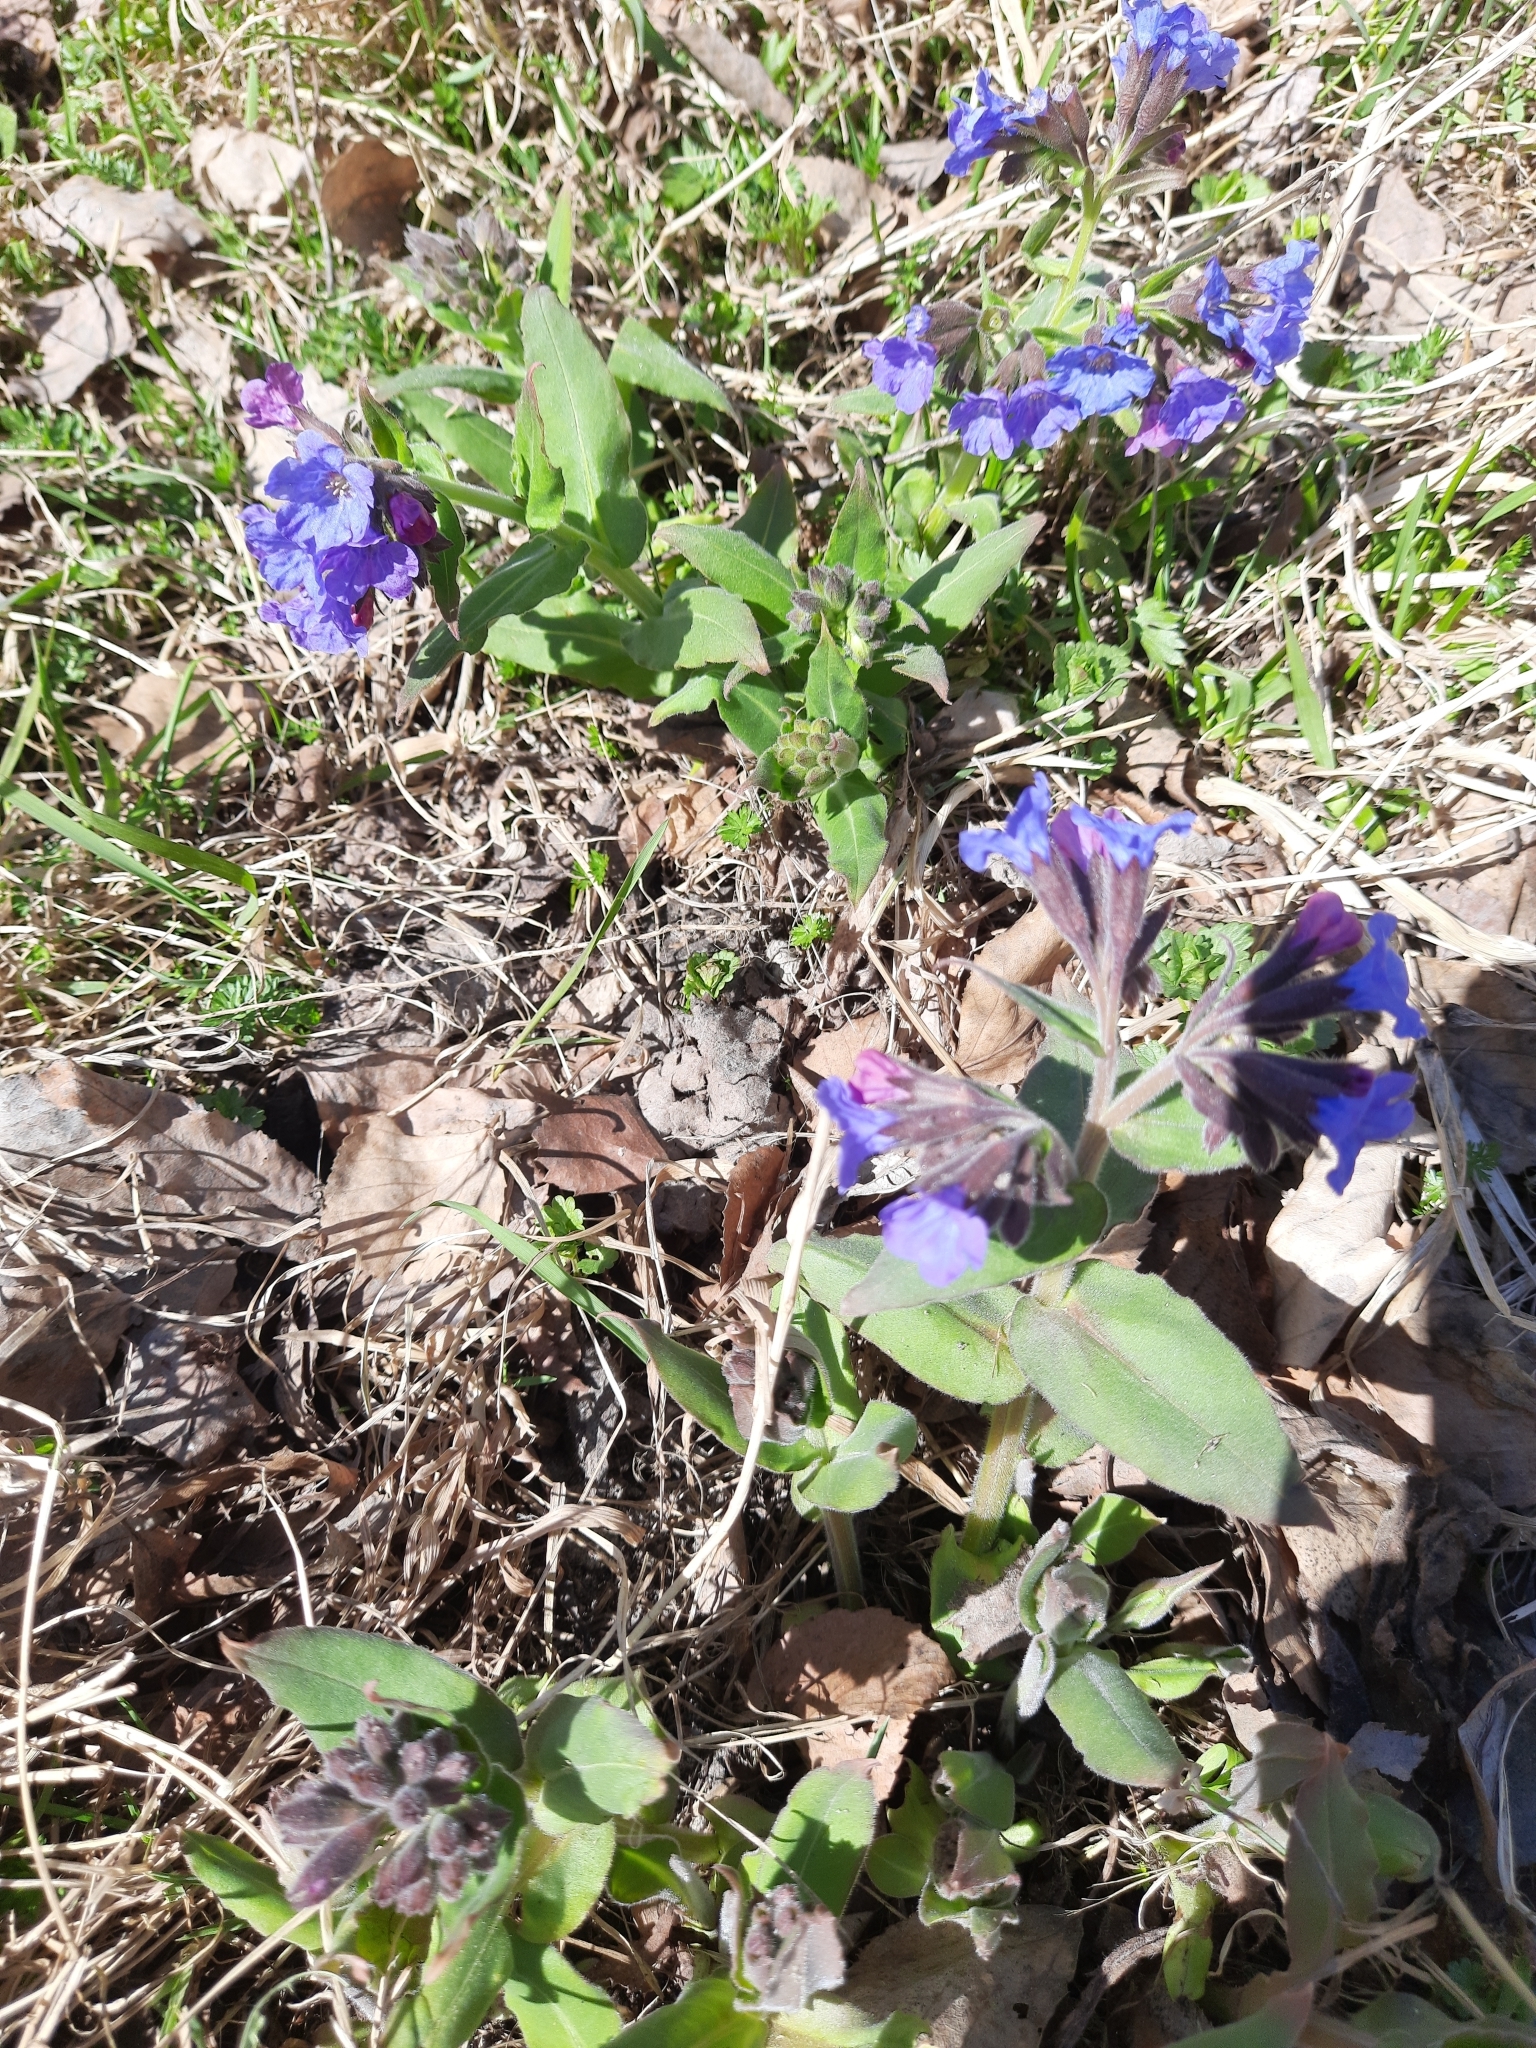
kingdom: Plantae
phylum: Tracheophyta
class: Magnoliopsida
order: Boraginales
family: Boraginaceae
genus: Pulmonaria
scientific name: Pulmonaria mollis
